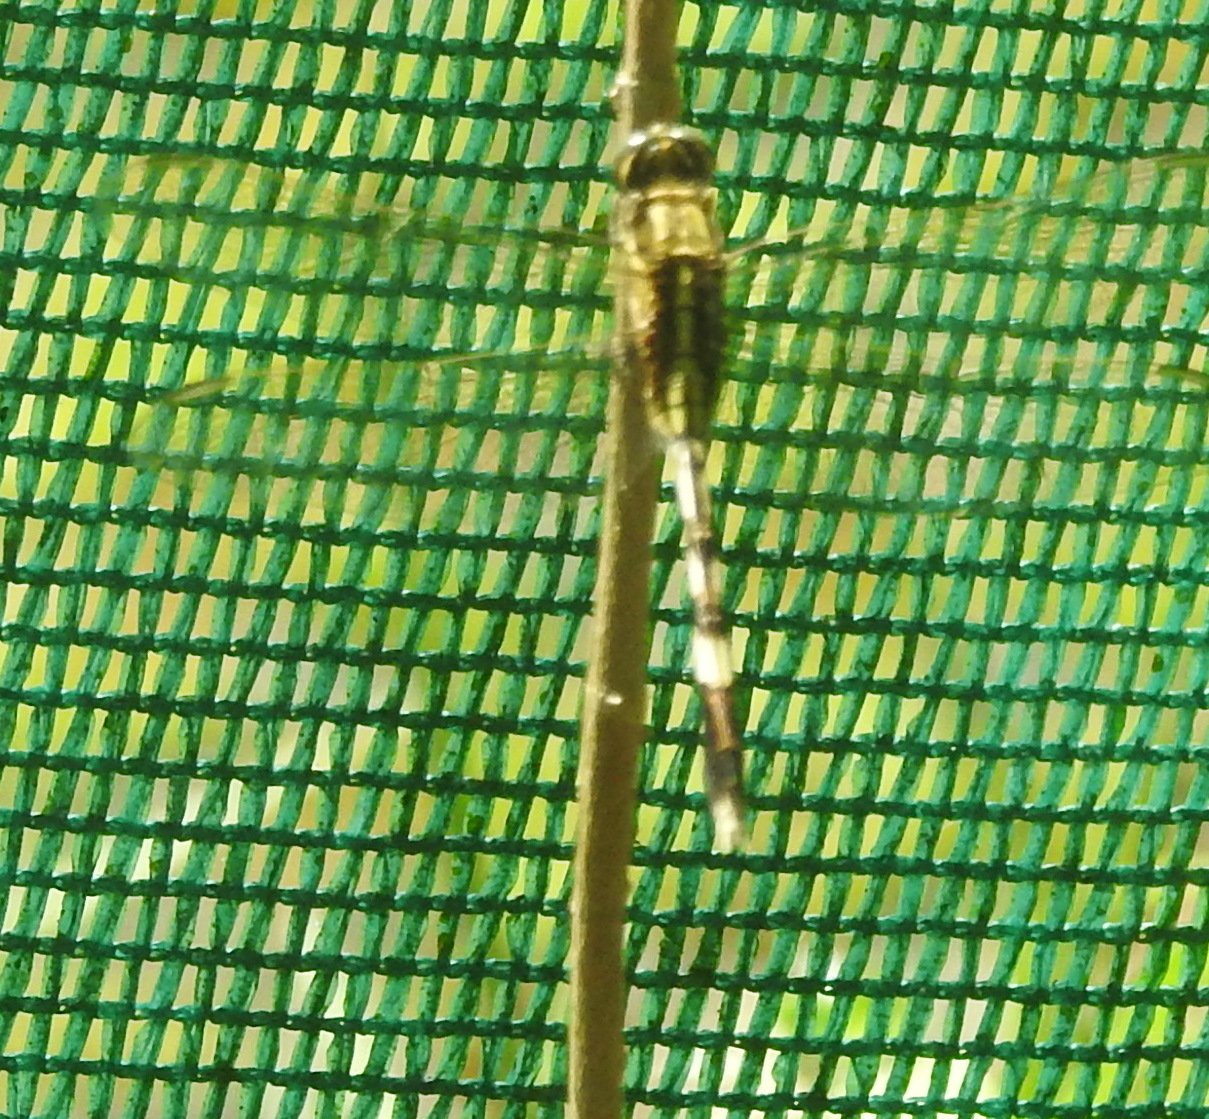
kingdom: Animalia
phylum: Arthropoda
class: Insecta
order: Odonata
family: Libellulidae
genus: Orthetrum
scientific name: Orthetrum sabina
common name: Slender skimmer
